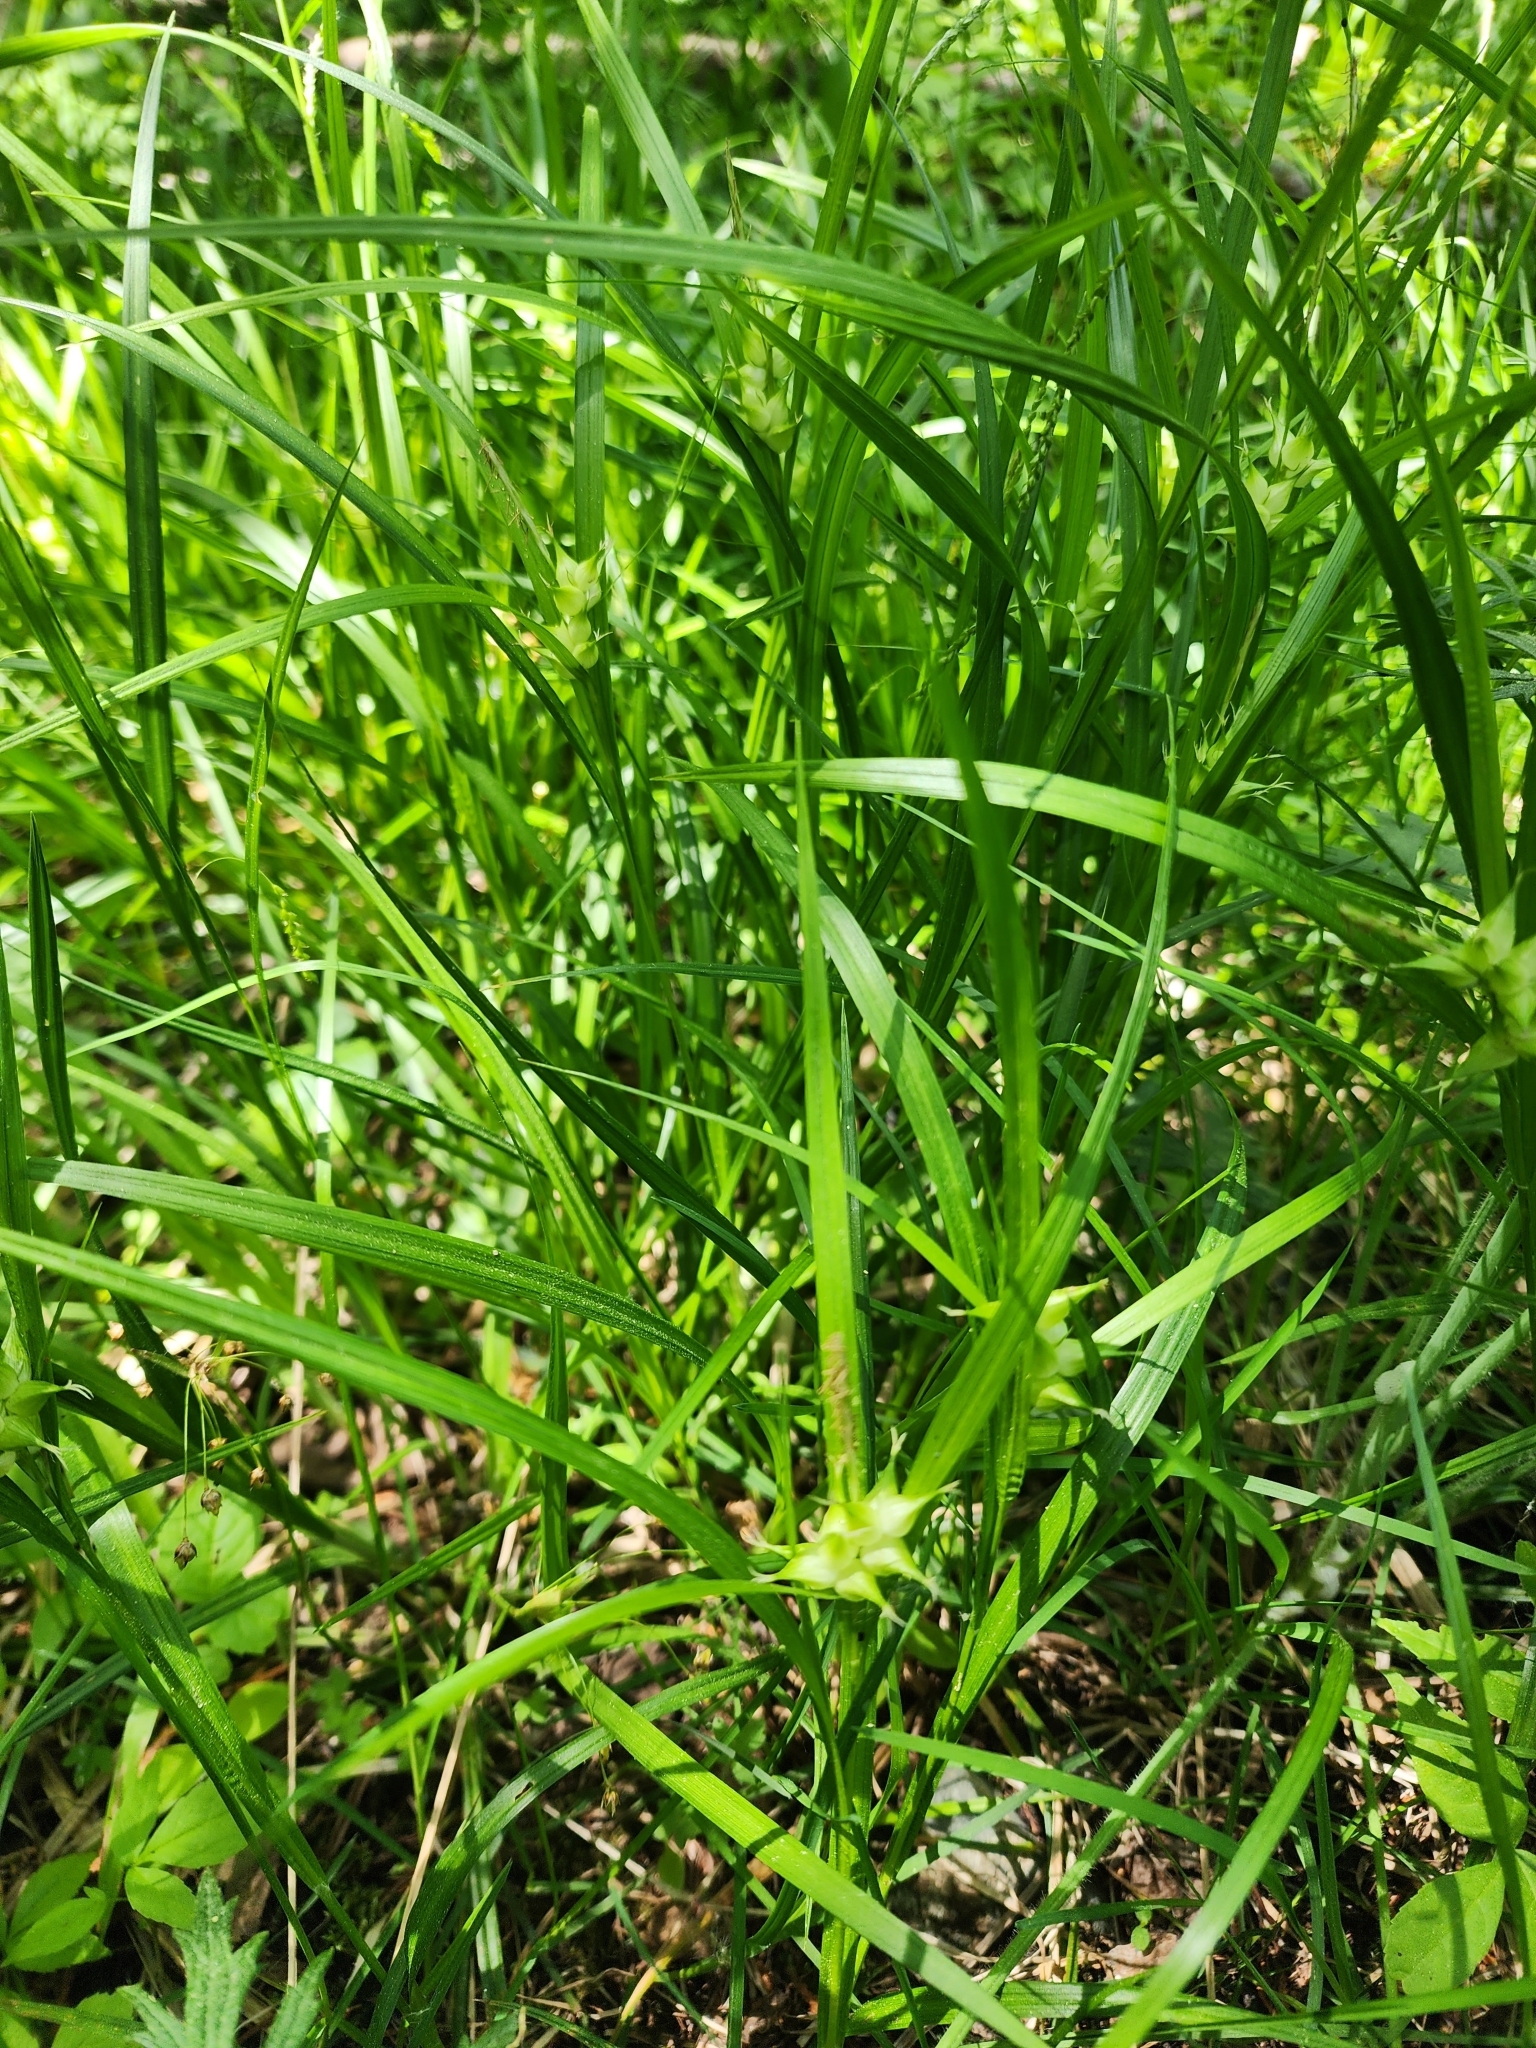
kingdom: Plantae
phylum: Tracheophyta
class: Liliopsida
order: Poales
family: Cyperaceae
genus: Carex
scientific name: Carex intumescens
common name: Greater bladder sedge
